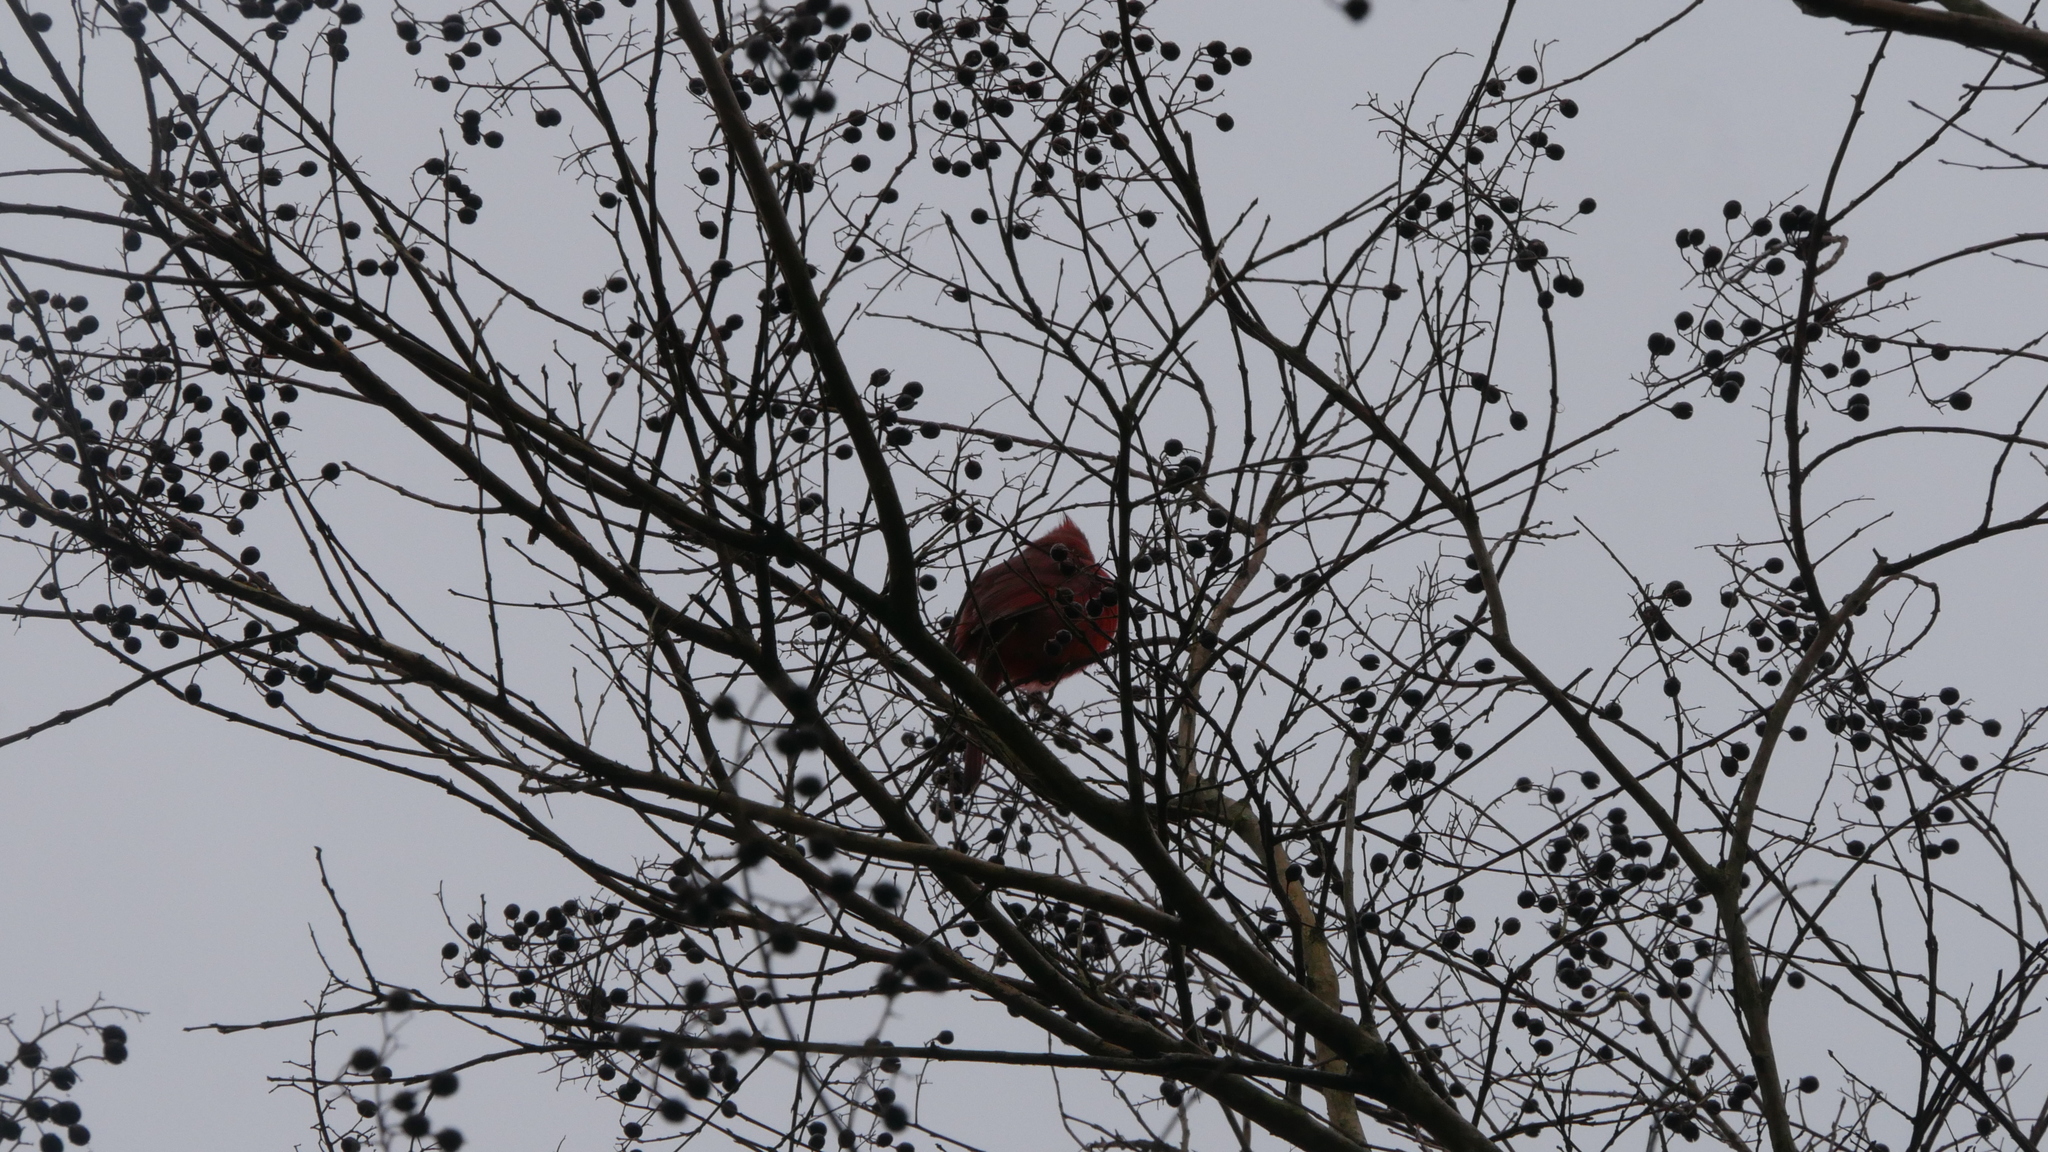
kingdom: Animalia
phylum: Chordata
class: Aves
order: Passeriformes
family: Cardinalidae
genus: Cardinalis
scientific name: Cardinalis cardinalis
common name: Northern cardinal
